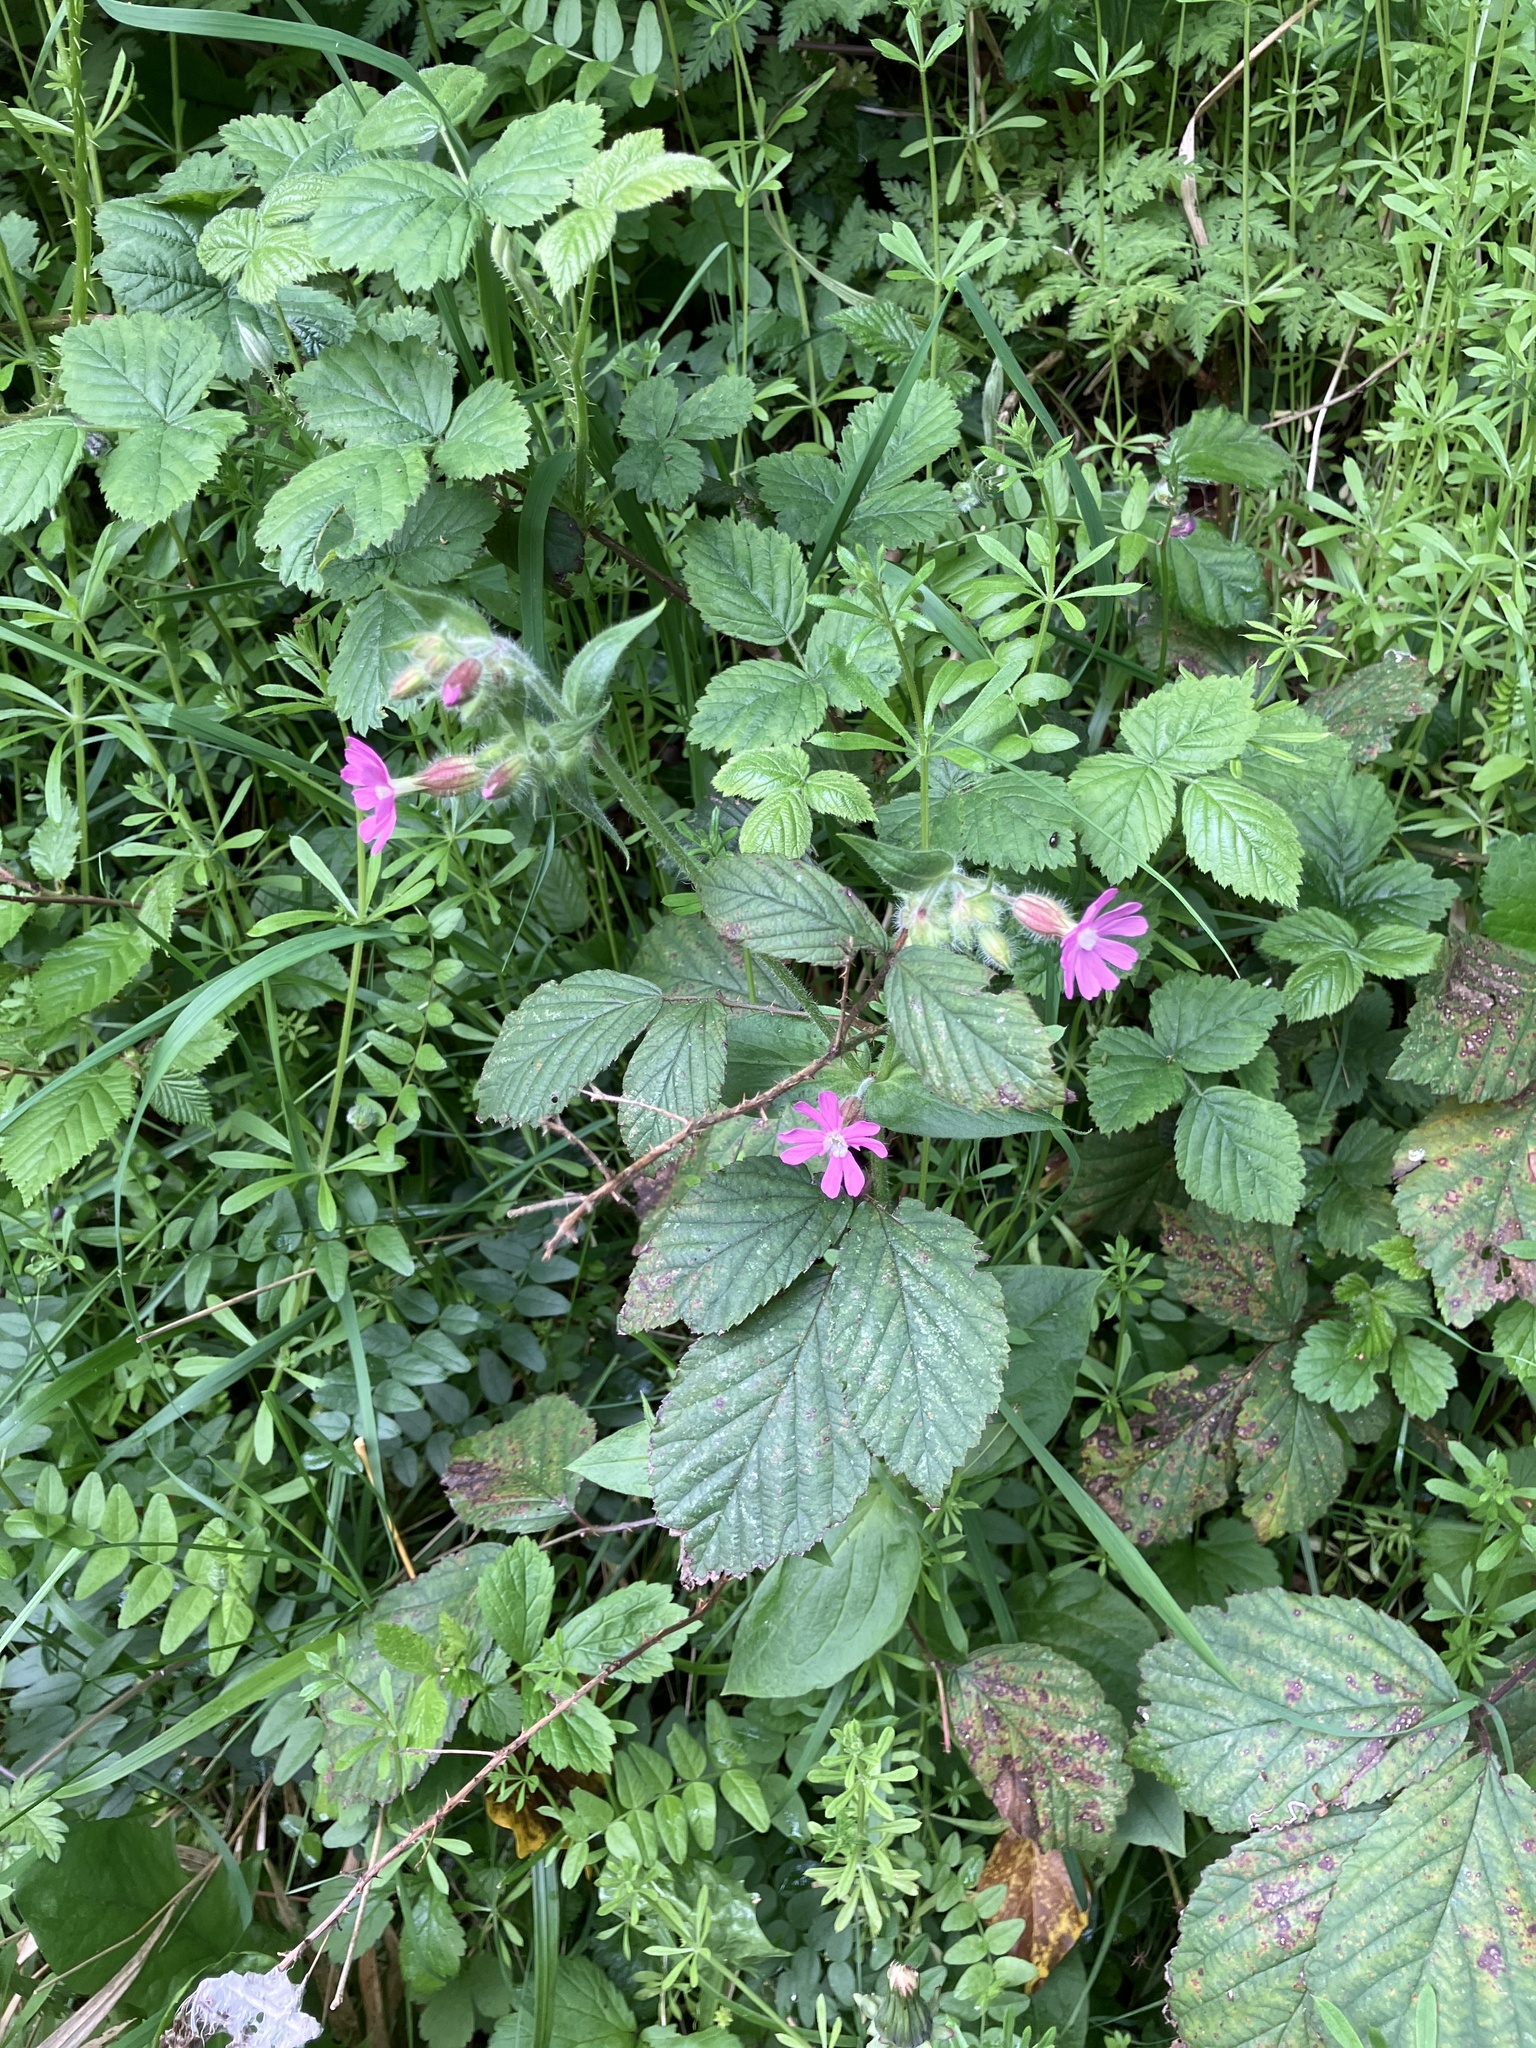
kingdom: Plantae
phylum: Tracheophyta
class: Magnoliopsida
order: Caryophyllales
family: Caryophyllaceae
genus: Silene
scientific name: Silene dioica
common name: Red campion
